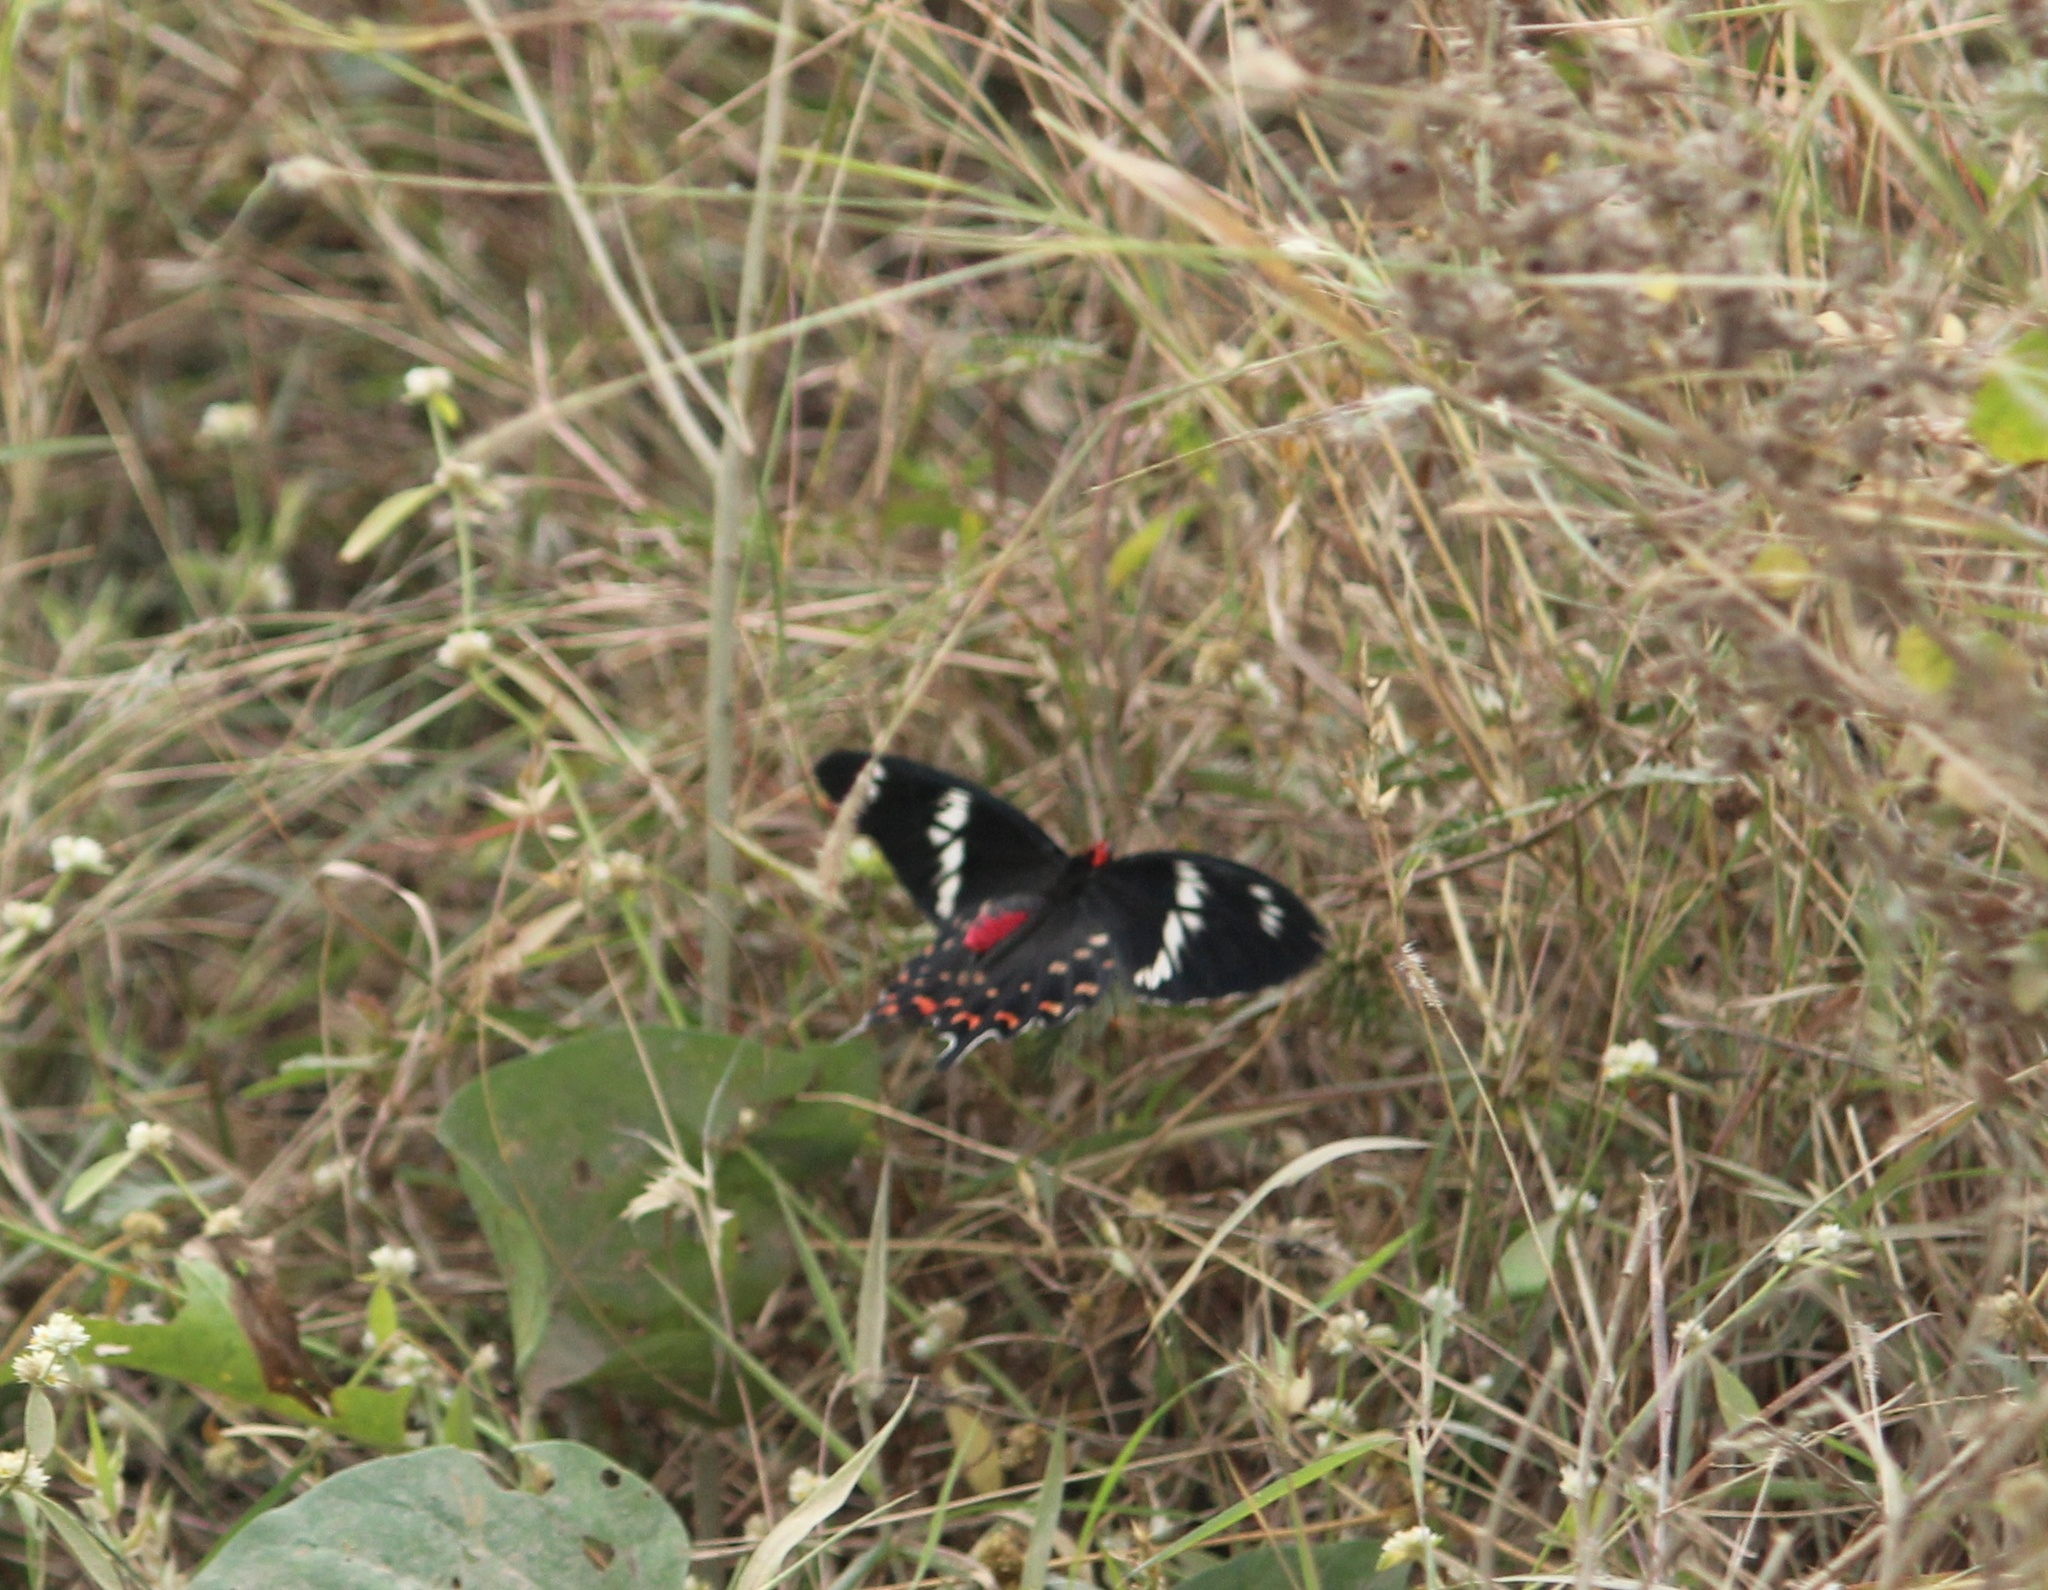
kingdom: Animalia
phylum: Arthropoda
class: Insecta
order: Lepidoptera
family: Papilionidae
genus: Pachliopta
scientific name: Pachliopta hector
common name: Crimson rose
